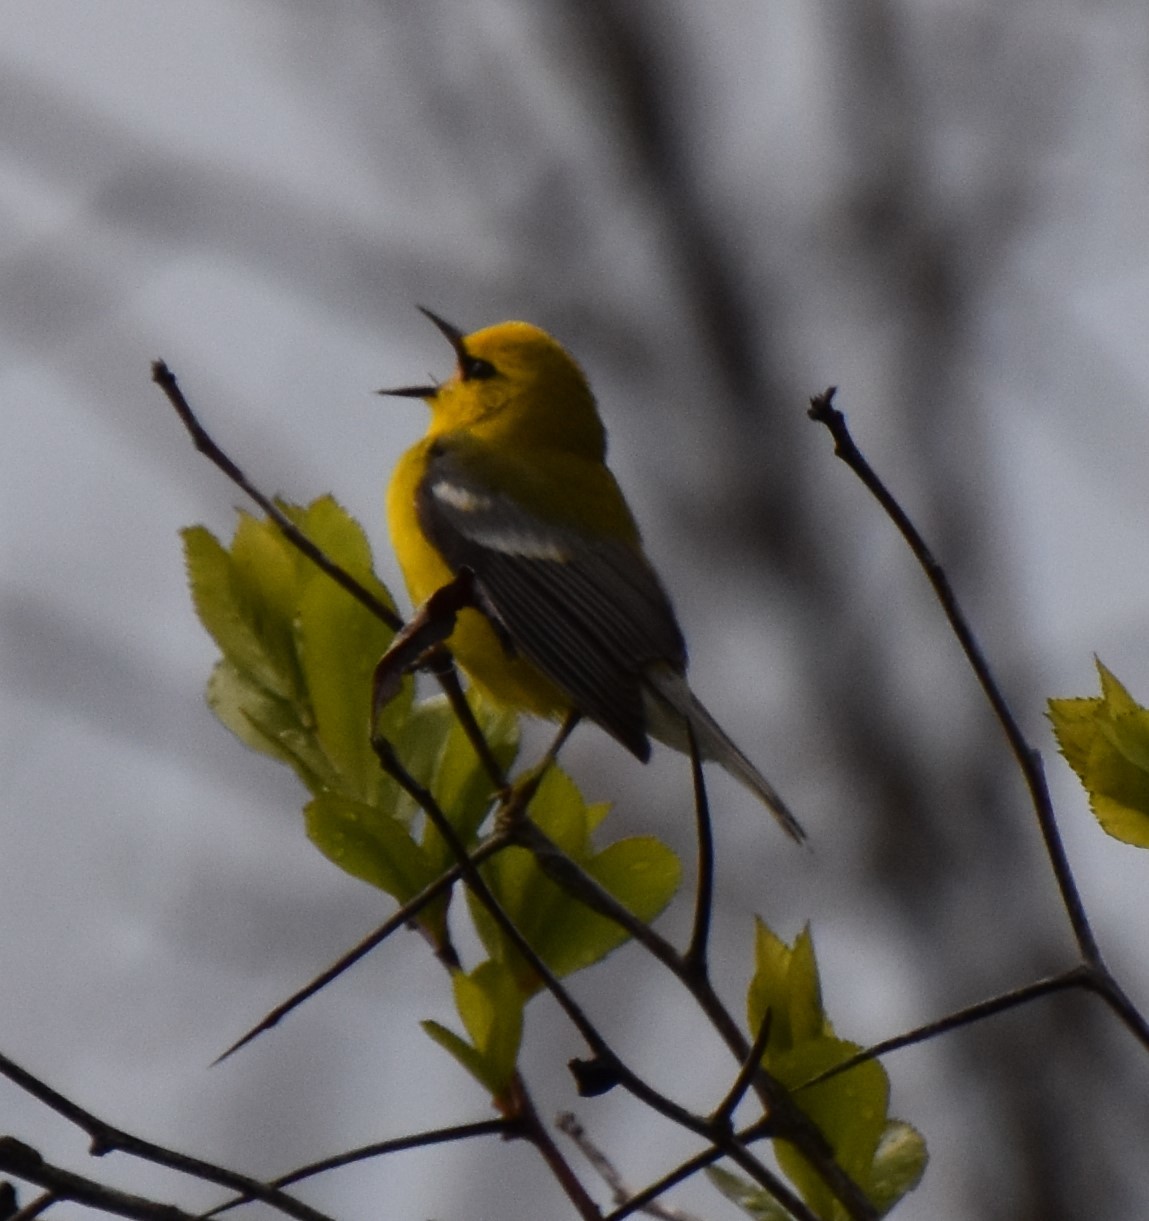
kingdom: Animalia
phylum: Chordata
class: Aves
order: Passeriformes
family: Parulidae
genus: Vermivora
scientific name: Vermivora cyanoptera
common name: Blue-winged warbler
